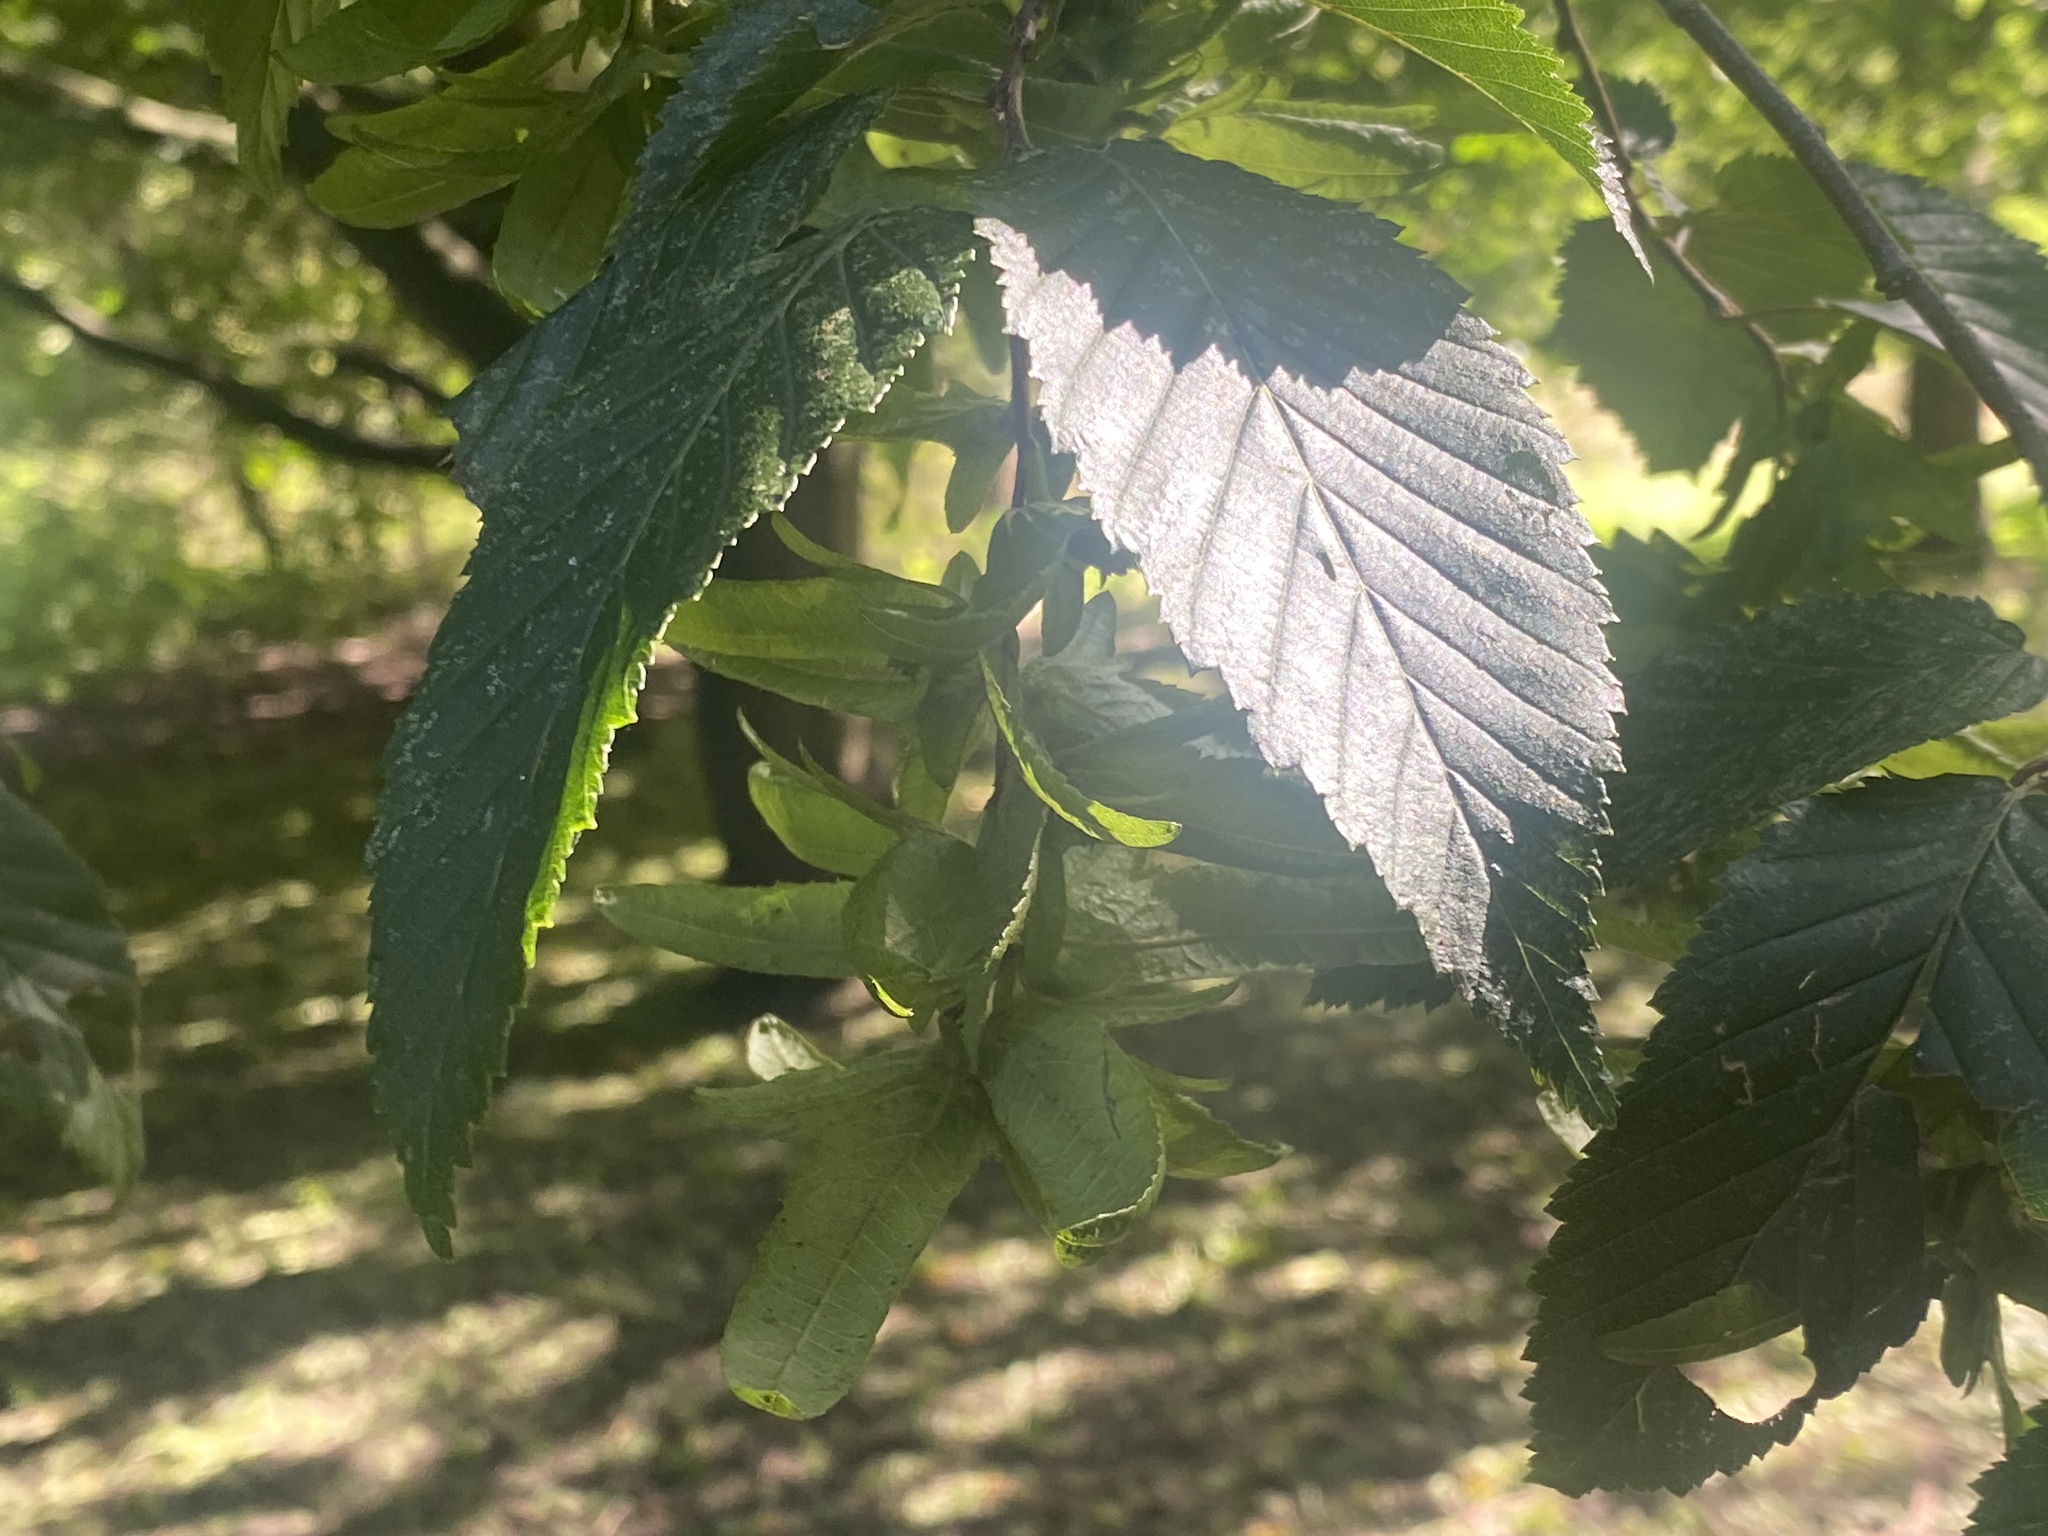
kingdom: Plantae
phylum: Tracheophyta
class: Magnoliopsida
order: Fagales
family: Betulaceae
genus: Carpinus
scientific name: Carpinus betulus
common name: Hornbeam
